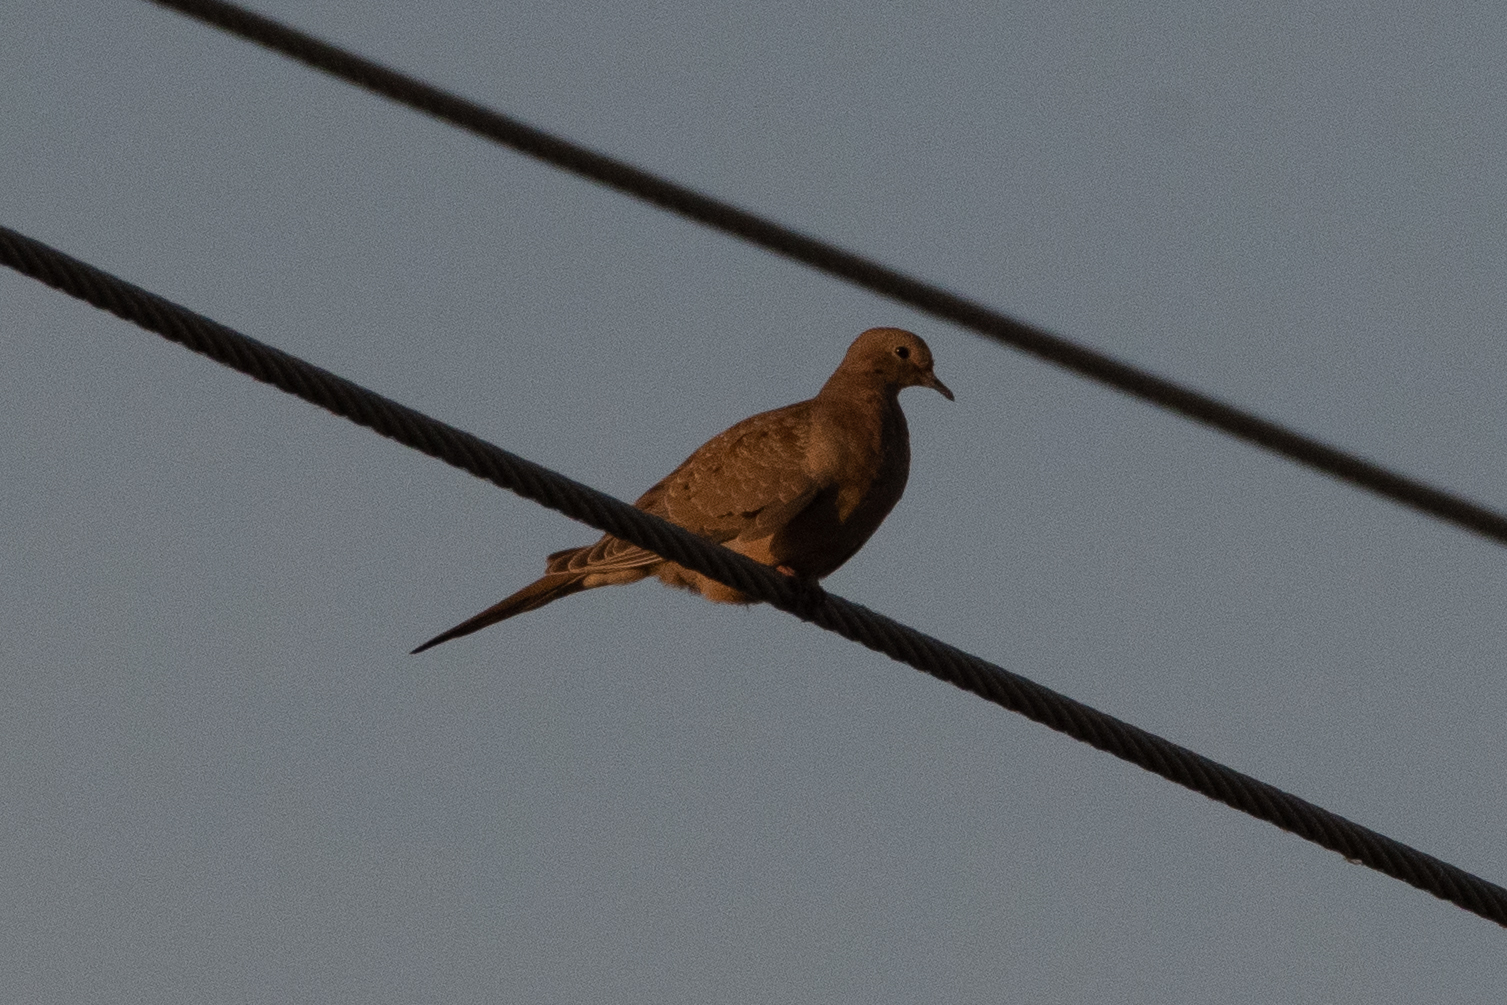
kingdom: Animalia
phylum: Chordata
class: Aves
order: Columbiformes
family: Columbidae
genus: Zenaida
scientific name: Zenaida macroura
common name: Mourning dove
